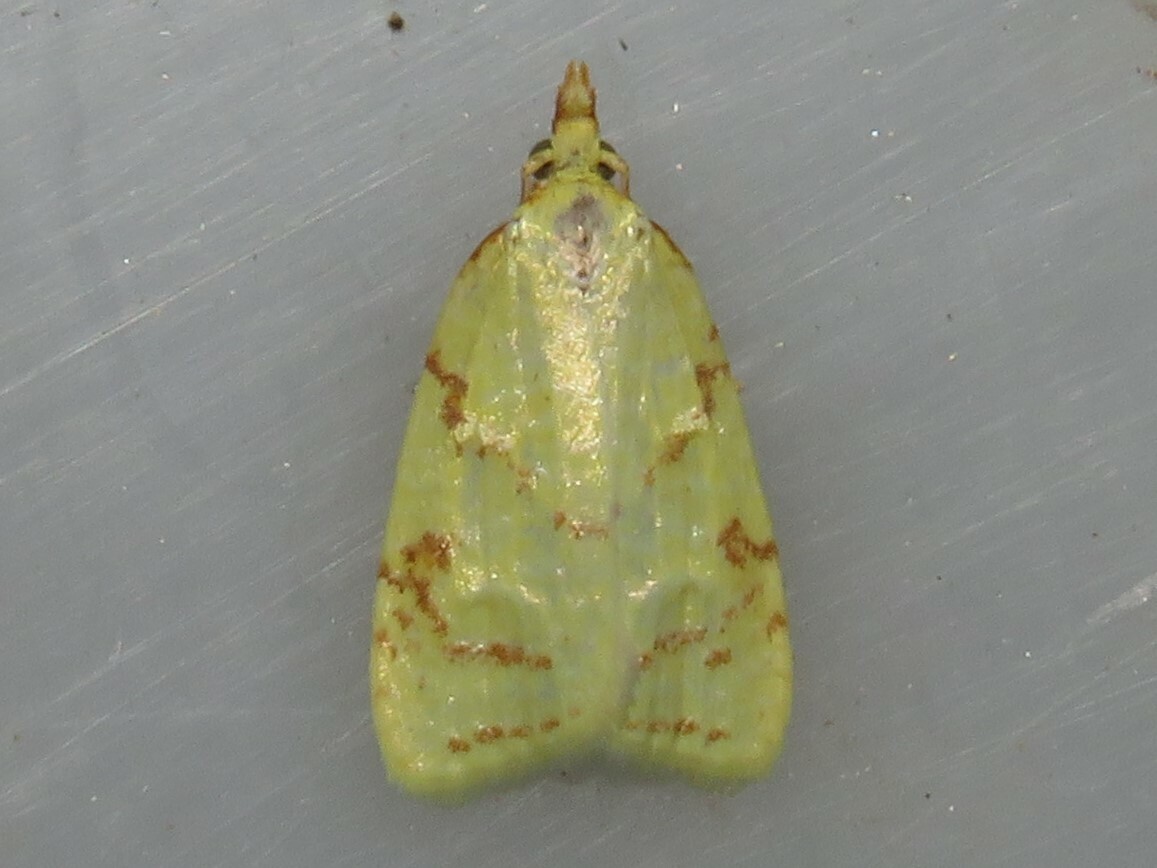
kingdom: Animalia
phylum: Arthropoda
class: Insecta
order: Lepidoptera
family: Tortricidae
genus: Cenopis
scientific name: Cenopis pettitana
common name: Maple-basswood leafroller moth
